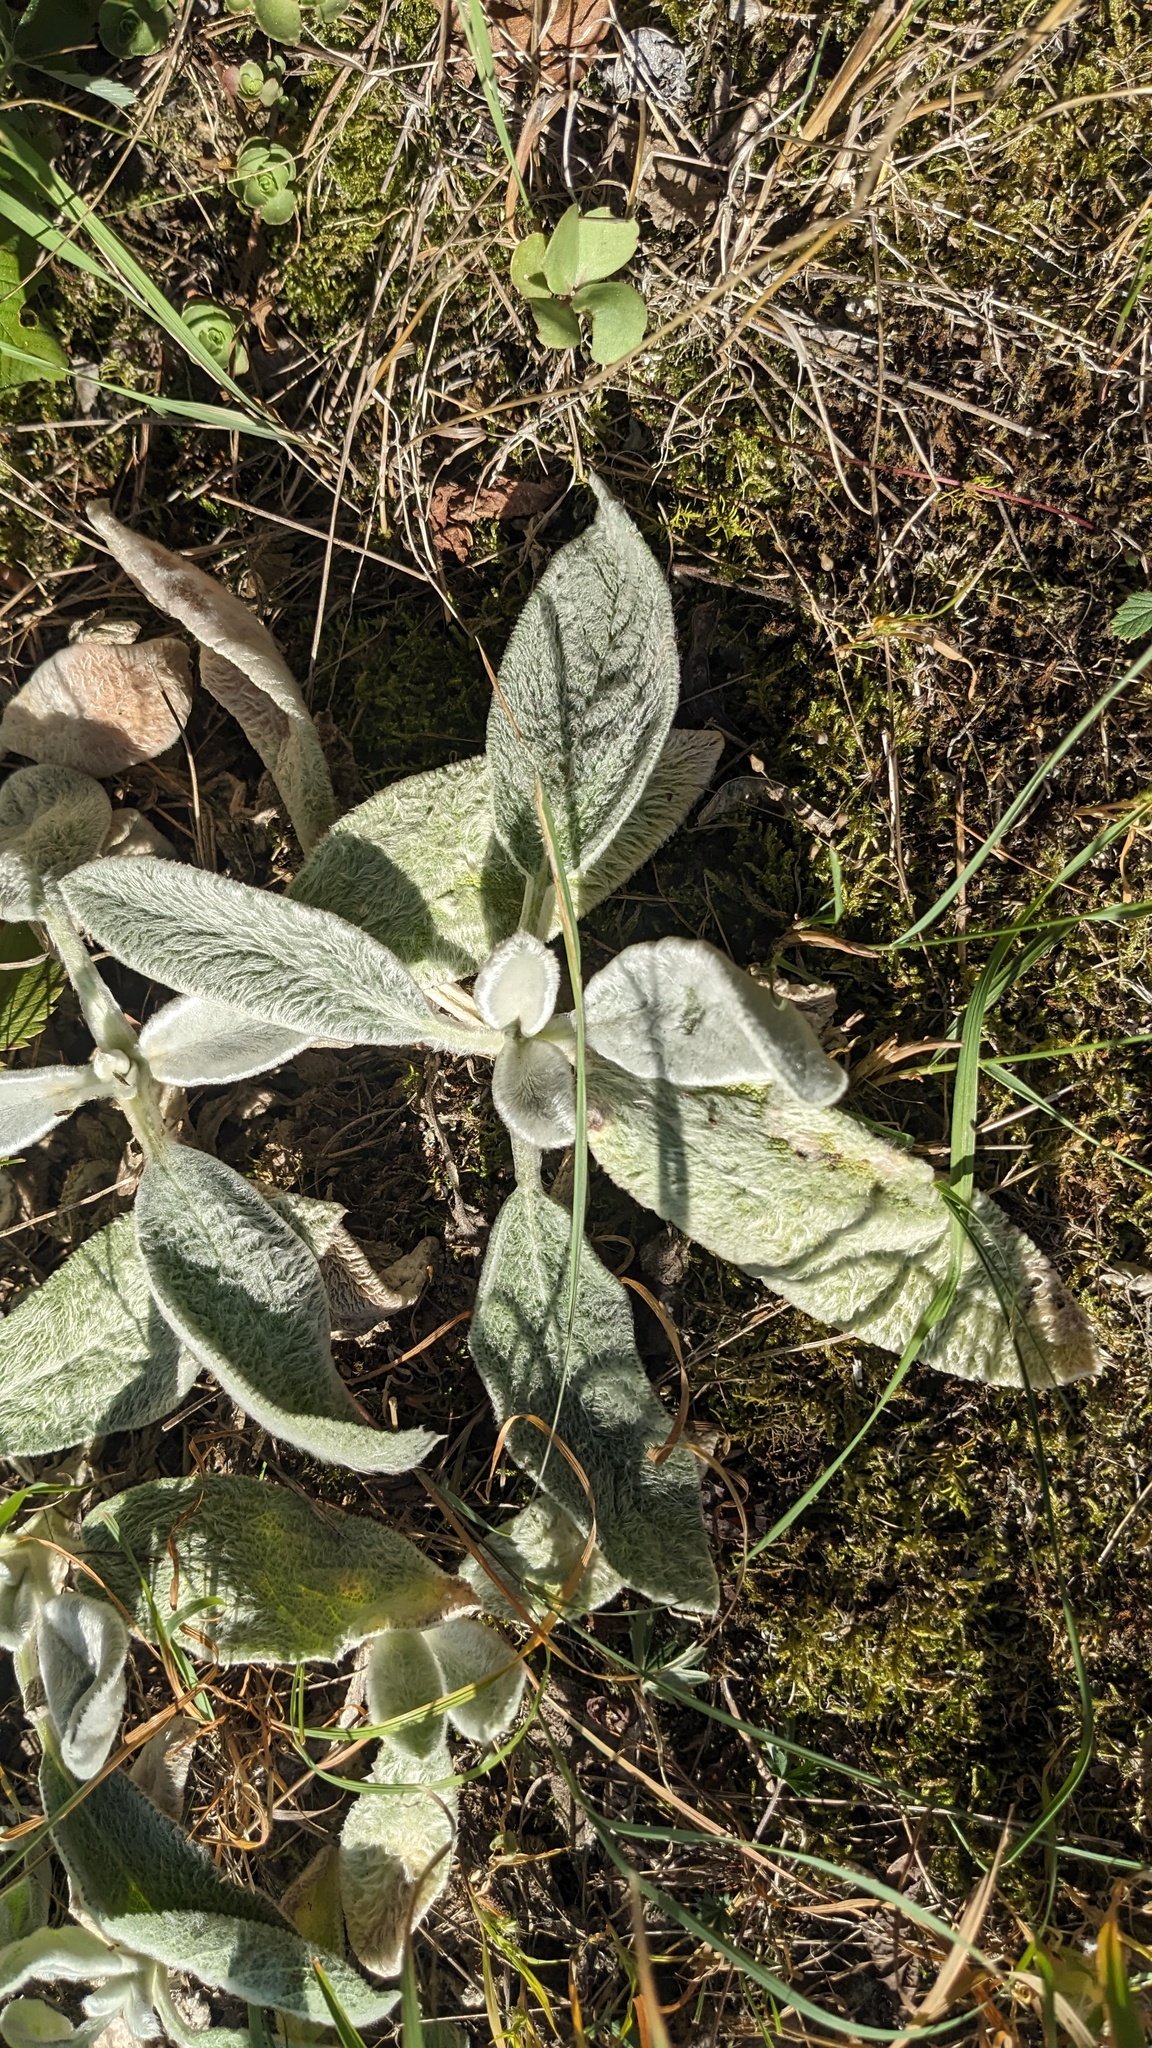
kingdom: Plantae
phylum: Tracheophyta
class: Magnoliopsida
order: Lamiales
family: Lamiaceae
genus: Stachys
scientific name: Stachys byzantina
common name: Lamb's-ear
